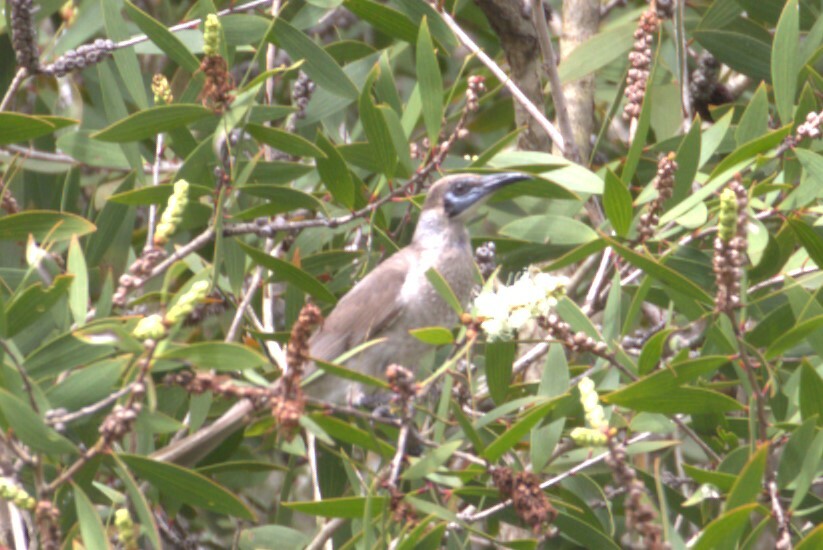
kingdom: Animalia
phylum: Chordata
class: Aves
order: Passeriformes
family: Meliphagidae
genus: Philemon
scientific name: Philemon citreogularis
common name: Little friarbird
